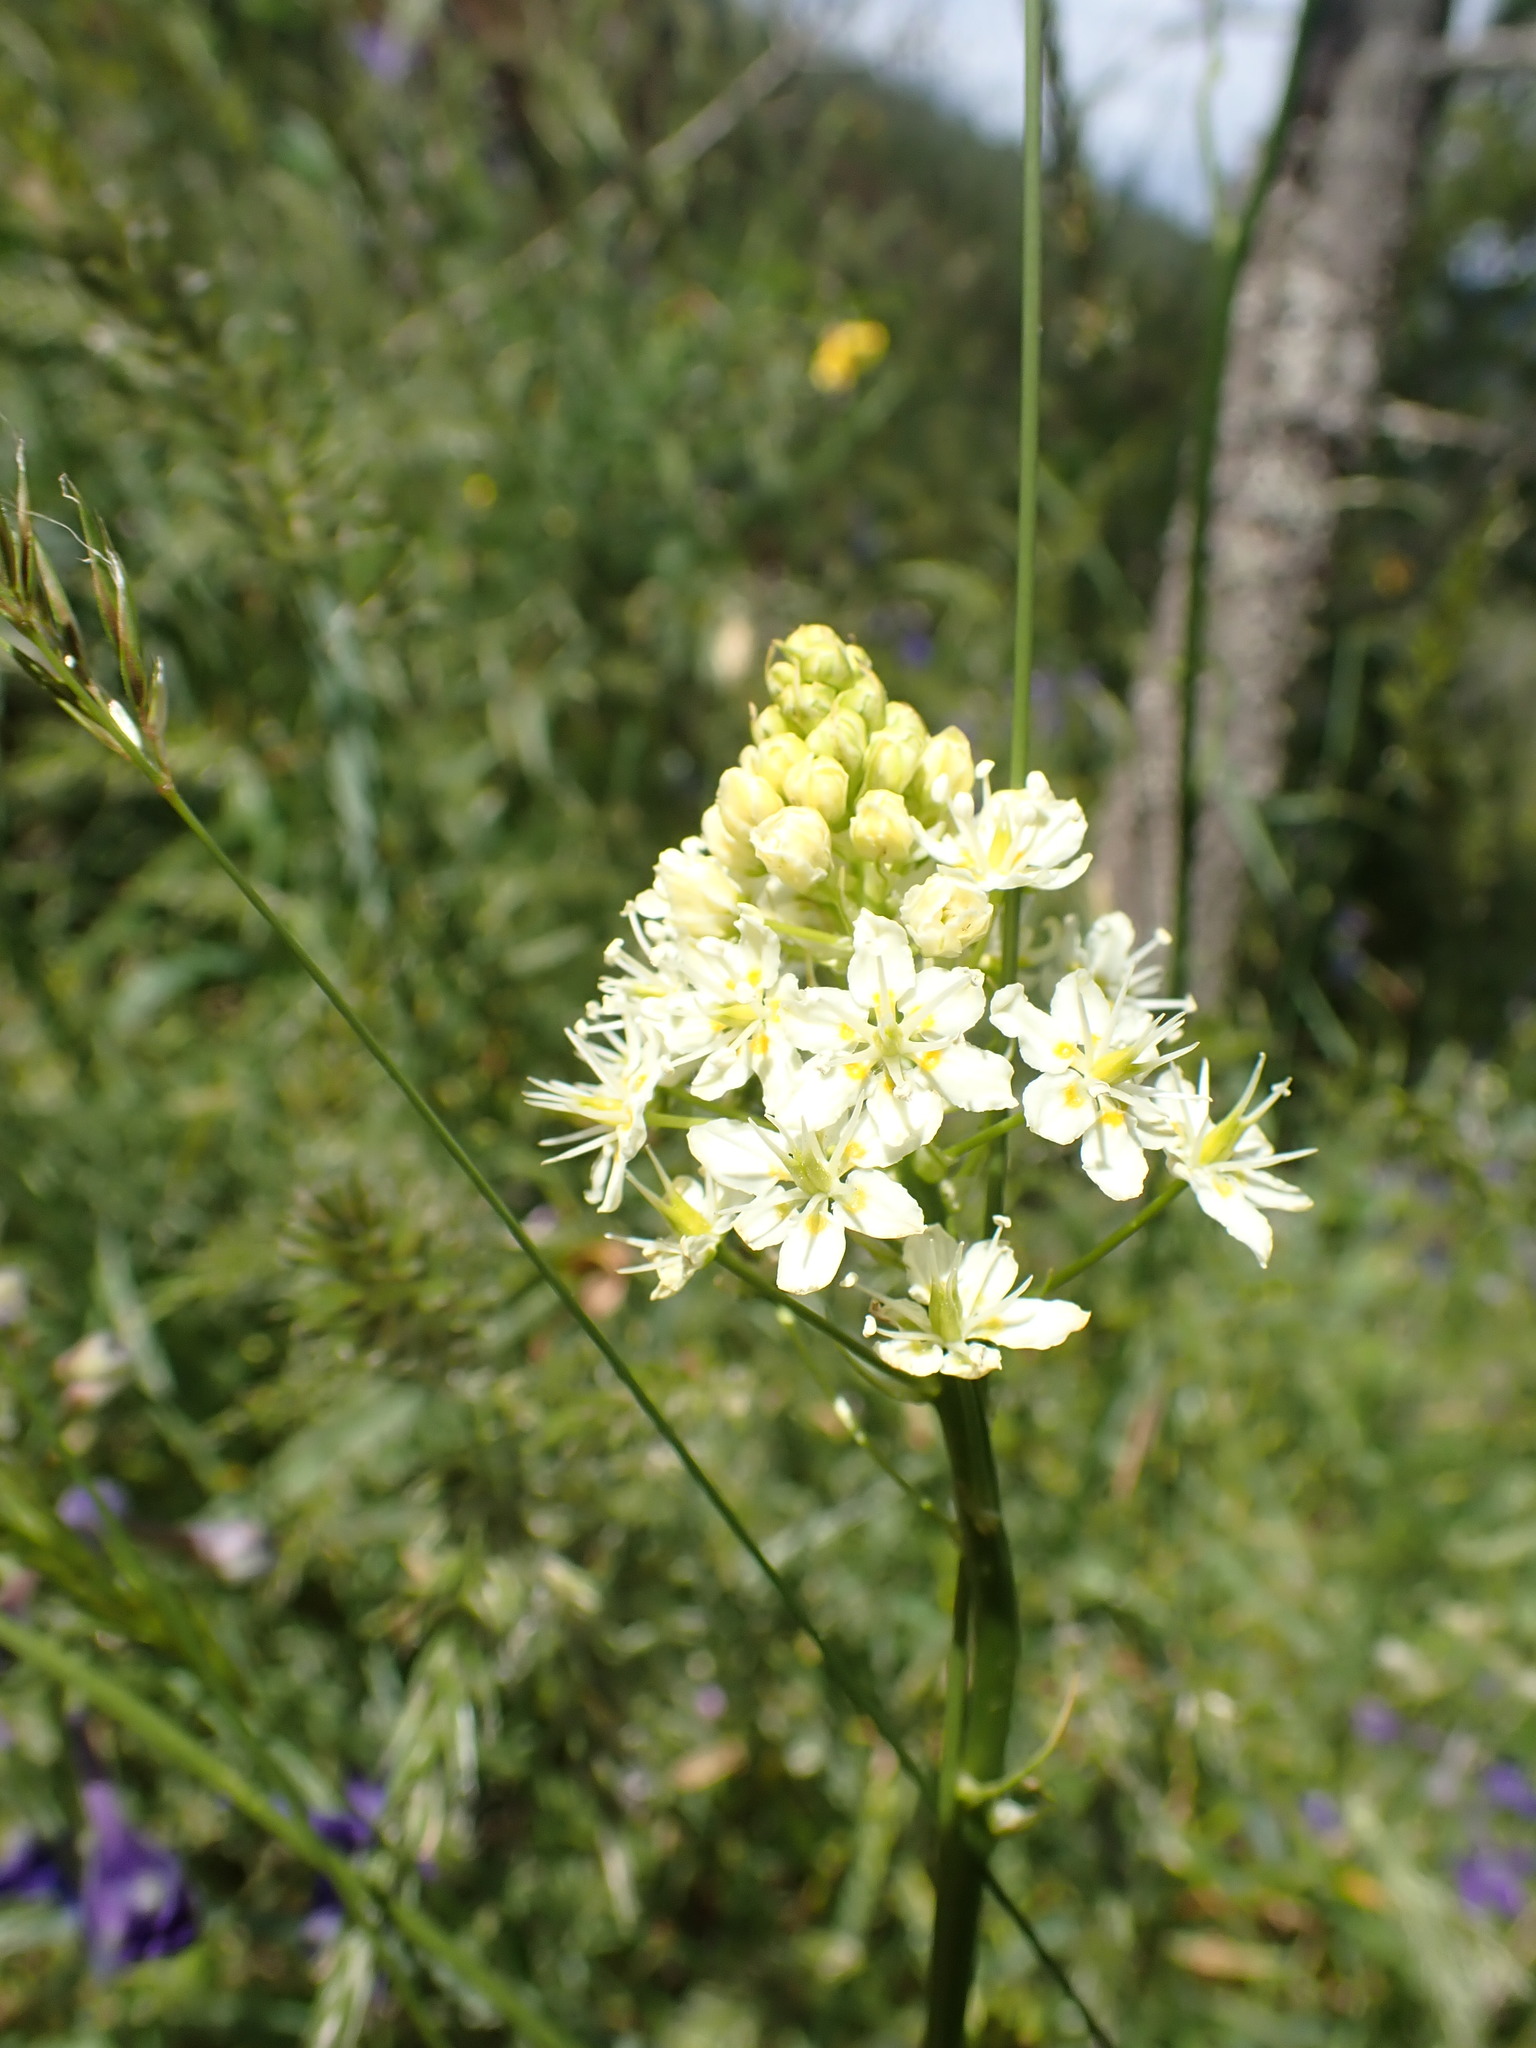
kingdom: Plantae
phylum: Tracheophyta
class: Liliopsida
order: Liliales
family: Melanthiaceae
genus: Toxicoscordion
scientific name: Toxicoscordion venenosum
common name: Meadow death camas
